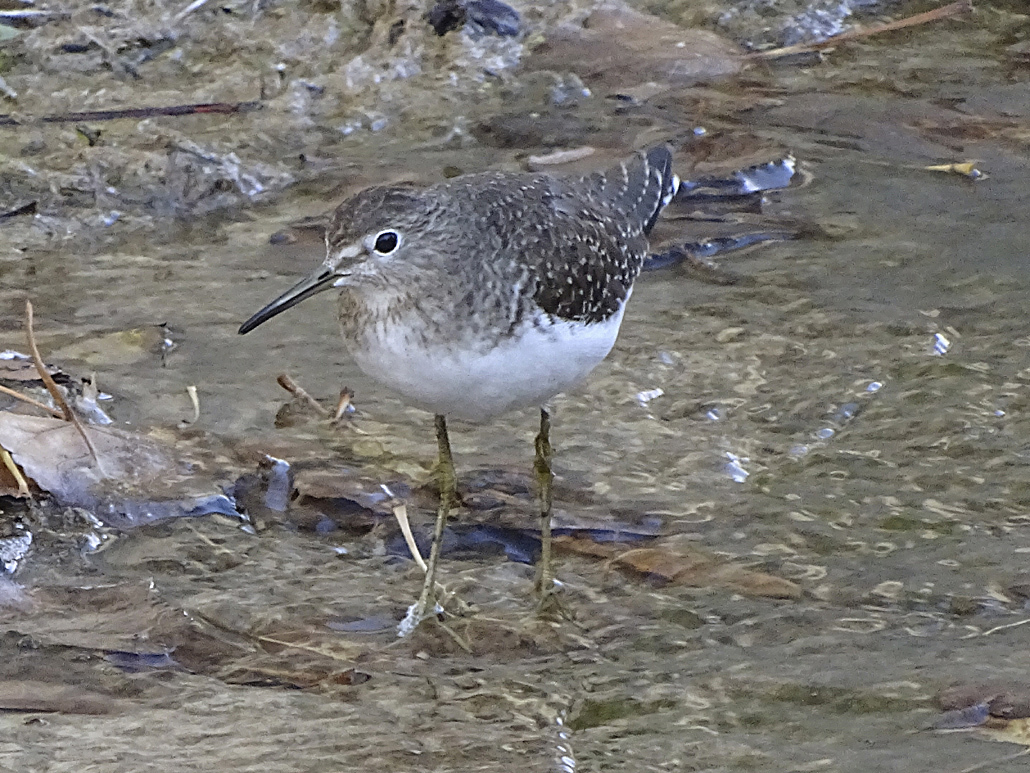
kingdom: Animalia
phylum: Chordata
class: Aves
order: Charadriiformes
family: Scolopacidae
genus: Tringa
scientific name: Tringa solitaria
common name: Solitary sandpiper
